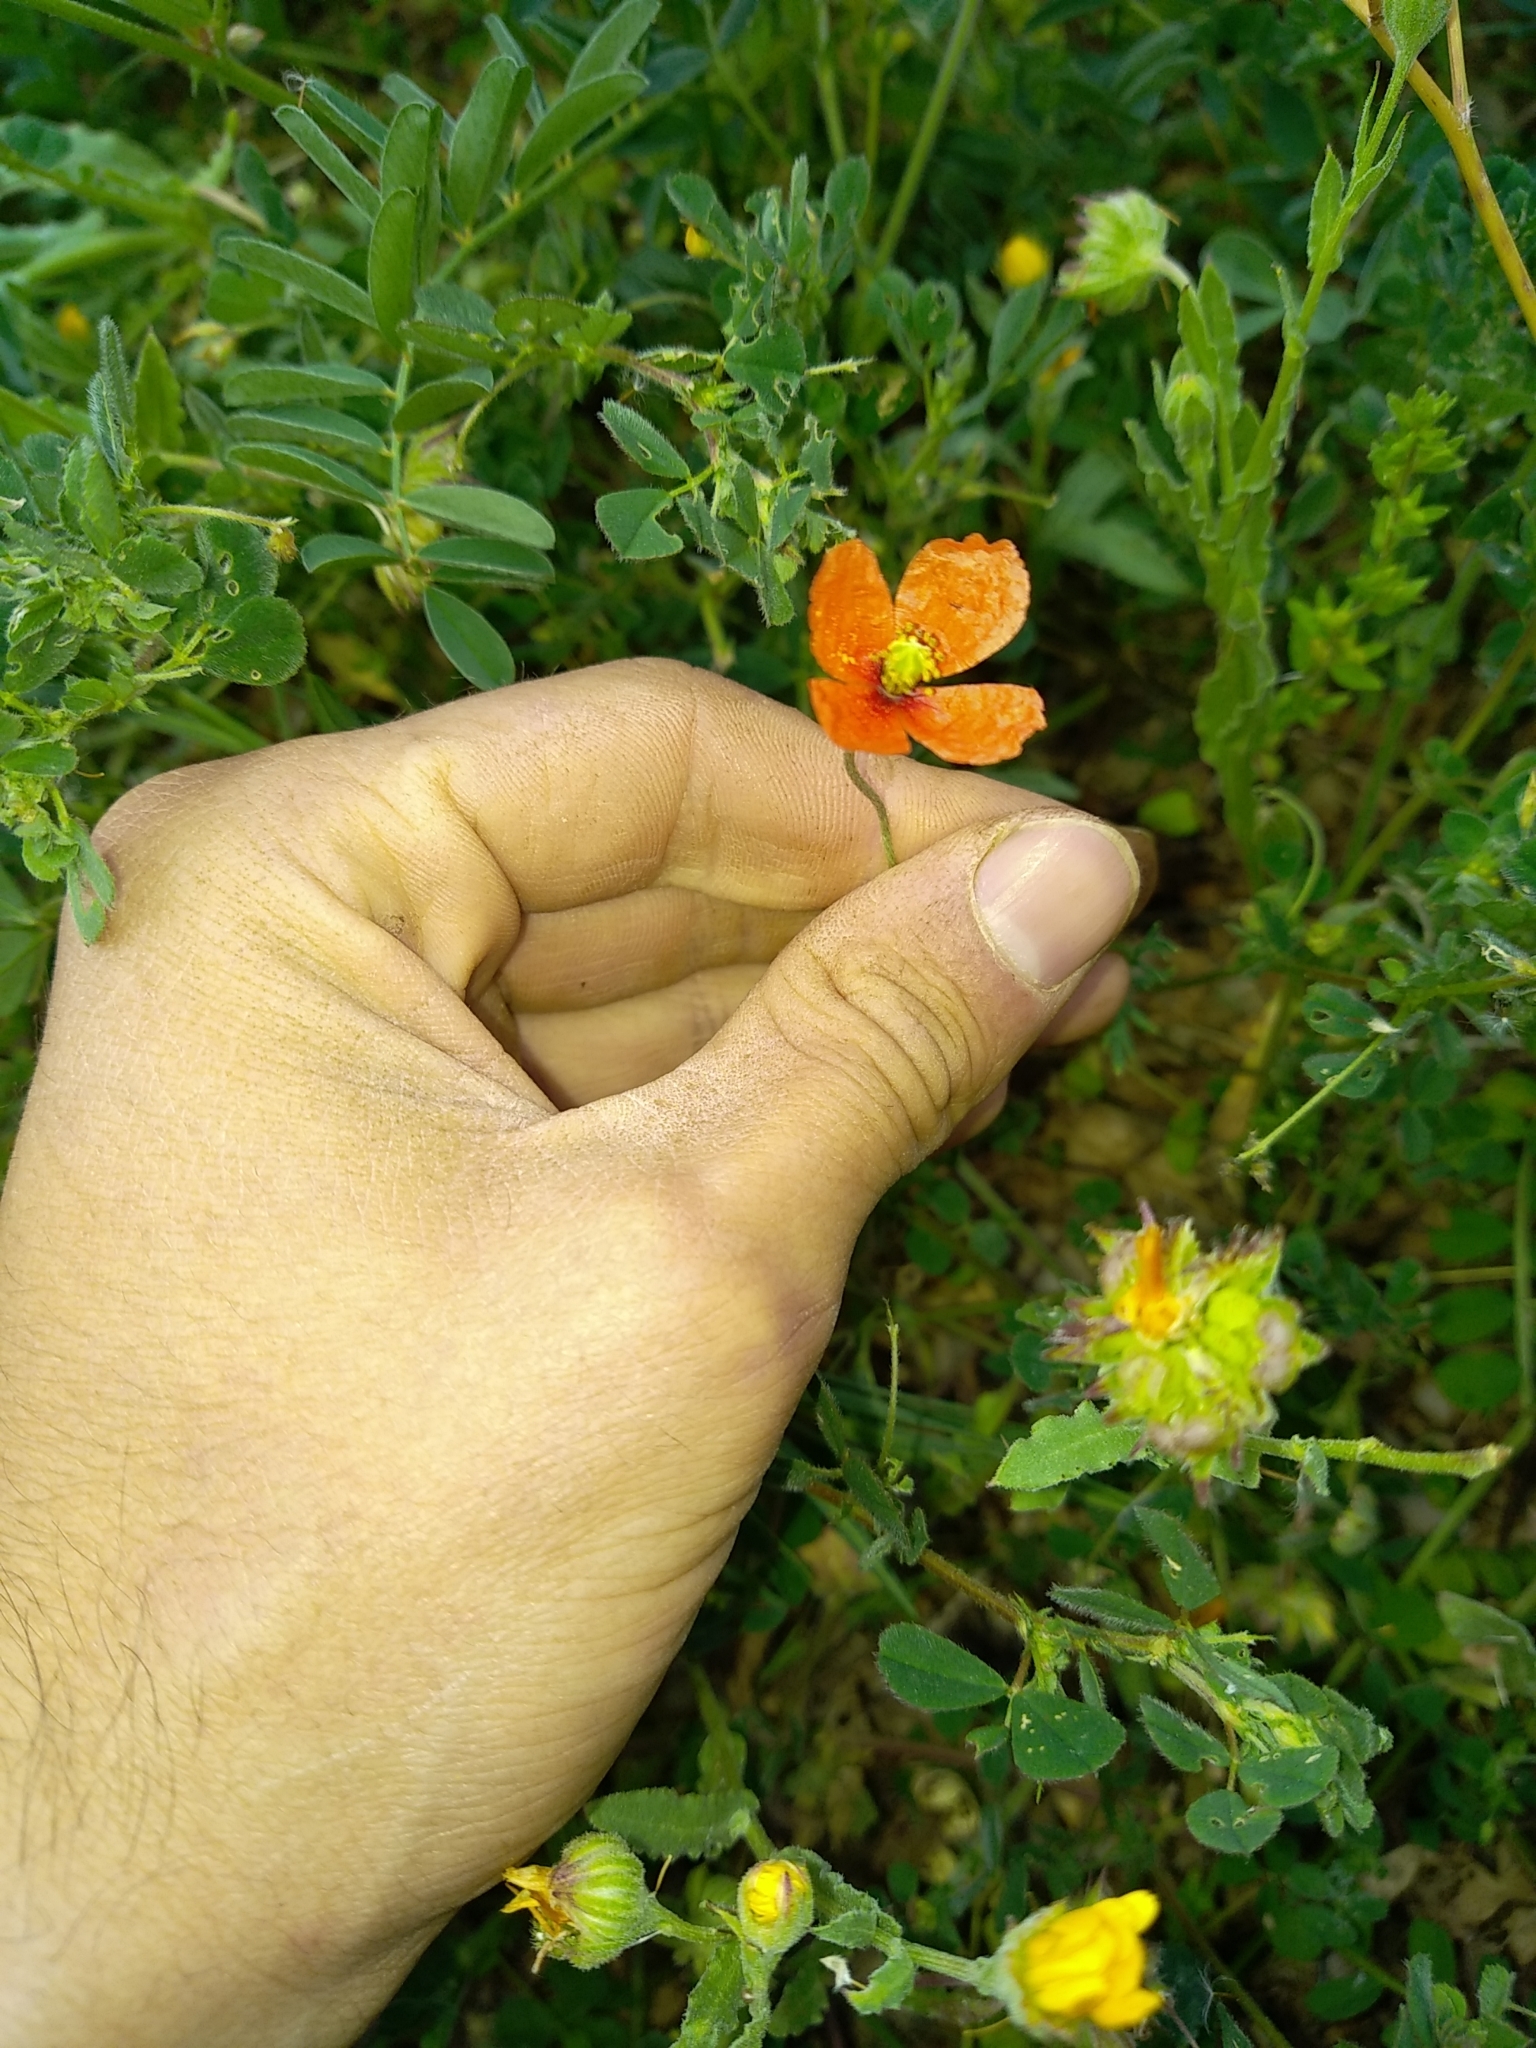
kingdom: Plantae
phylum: Tracheophyta
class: Magnoliopsida
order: Ranunculales
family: Papaveraceae
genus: Papaver
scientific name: Papaver dubium
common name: Long-headed poppy
